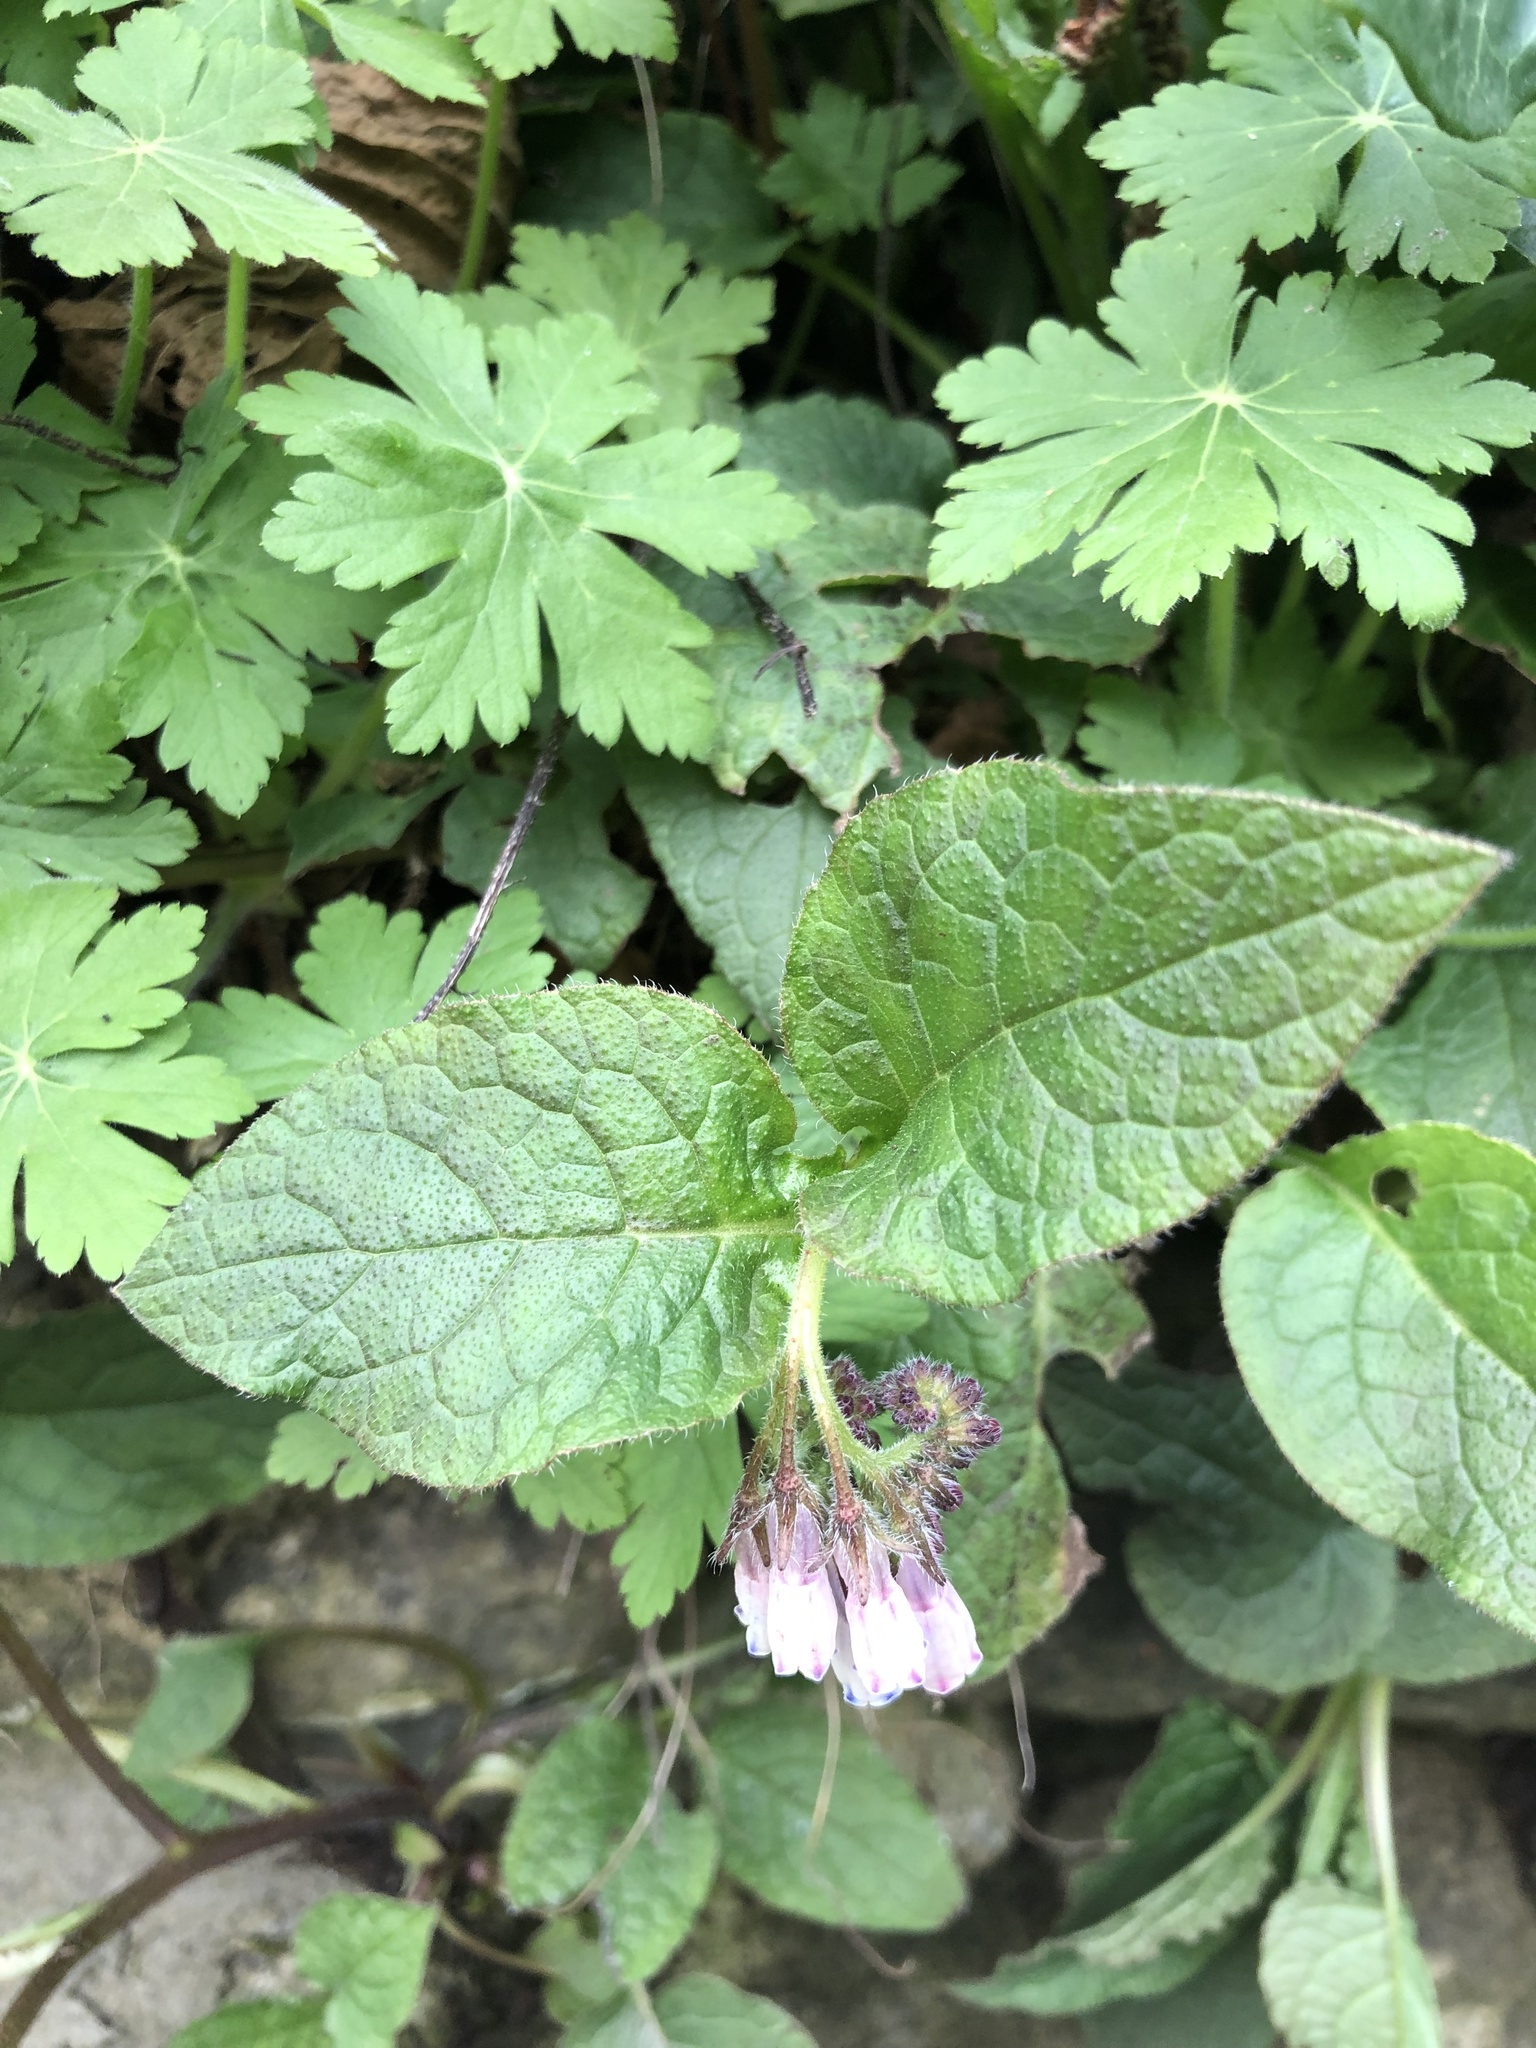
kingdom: Plantae
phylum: Tracheophyta
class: Magnoliopsida
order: Boraginales
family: Boraginaceae
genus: Symphytum
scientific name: Symphytum hidcotense
